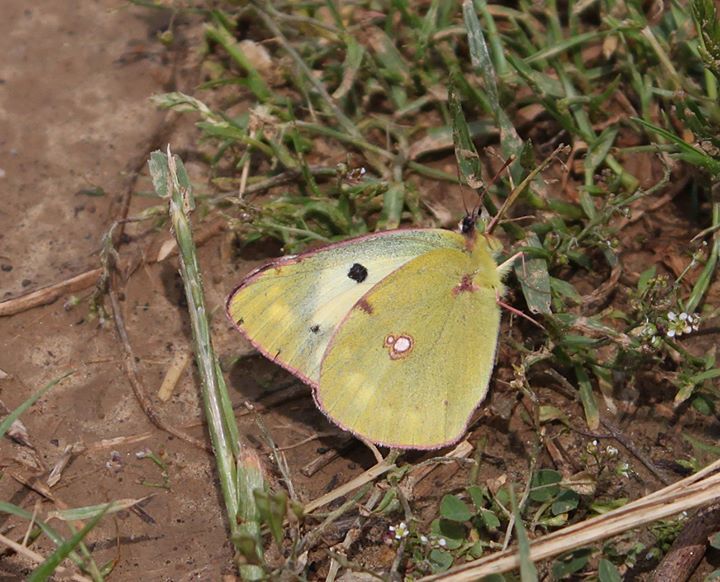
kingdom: Animalia
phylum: Arthropoda
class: Insecta
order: Lepidoptera
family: Pieridae
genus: Colias
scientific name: Colias croceus
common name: Clouded yellow
